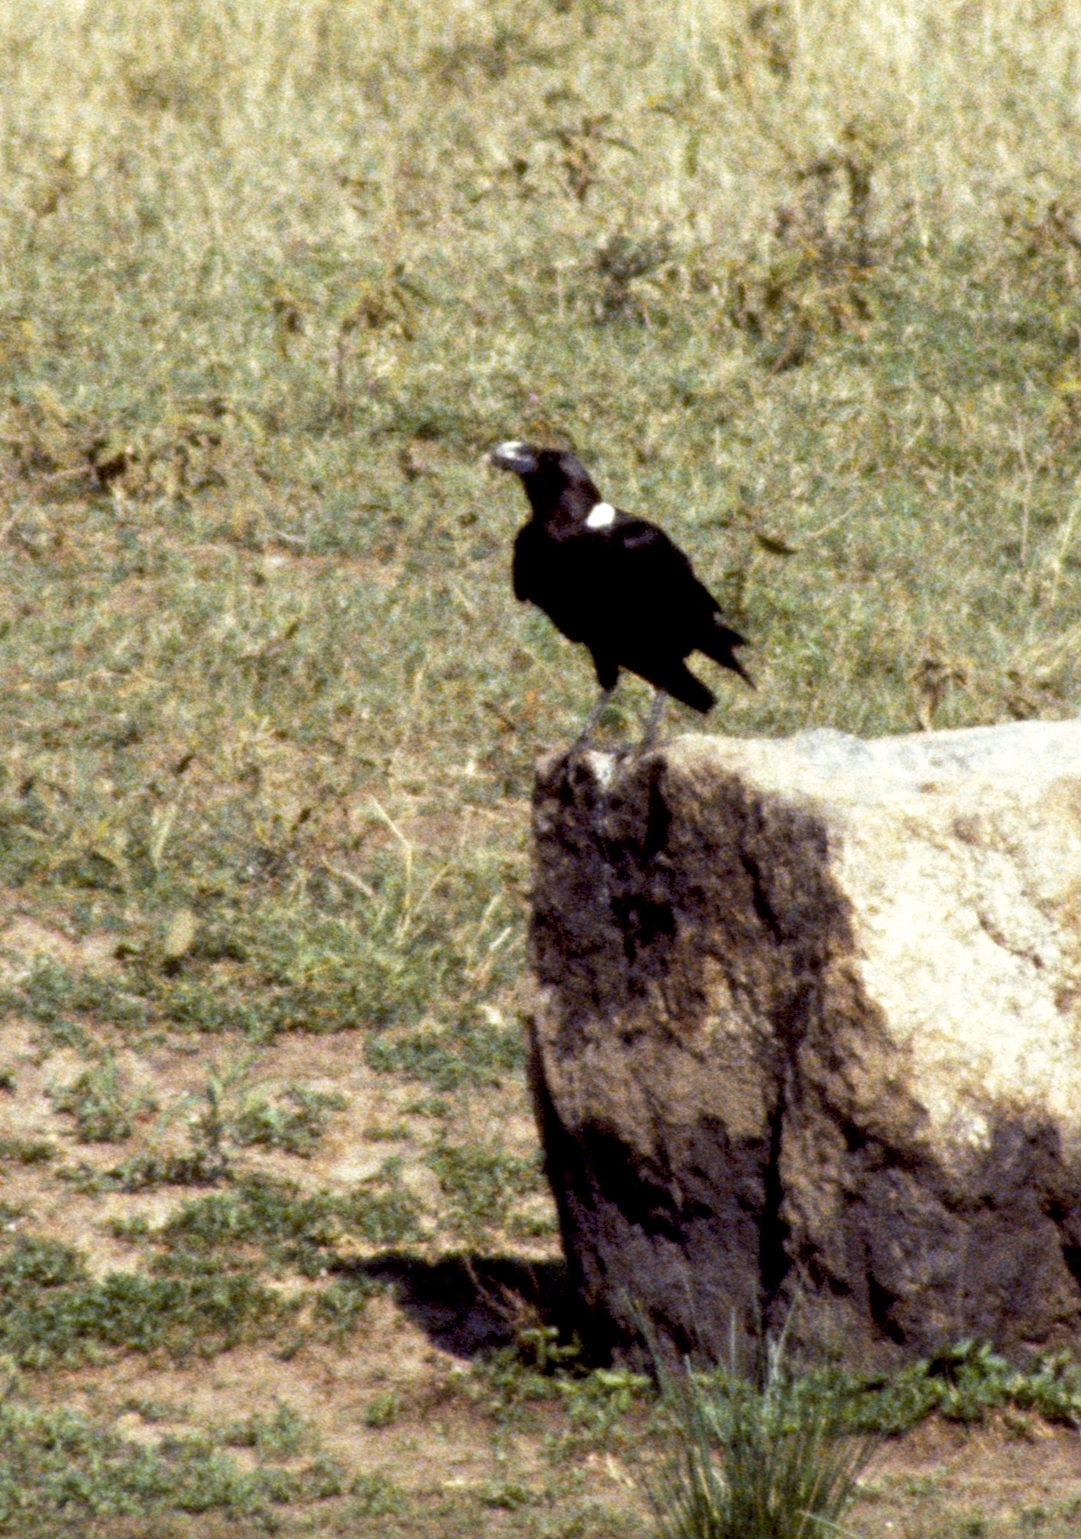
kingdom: Animalia
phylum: Chordata
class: Aves
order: Passeriformes
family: Corvidae
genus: Corvus
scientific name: Corvus albicollis
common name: White-necked raven
